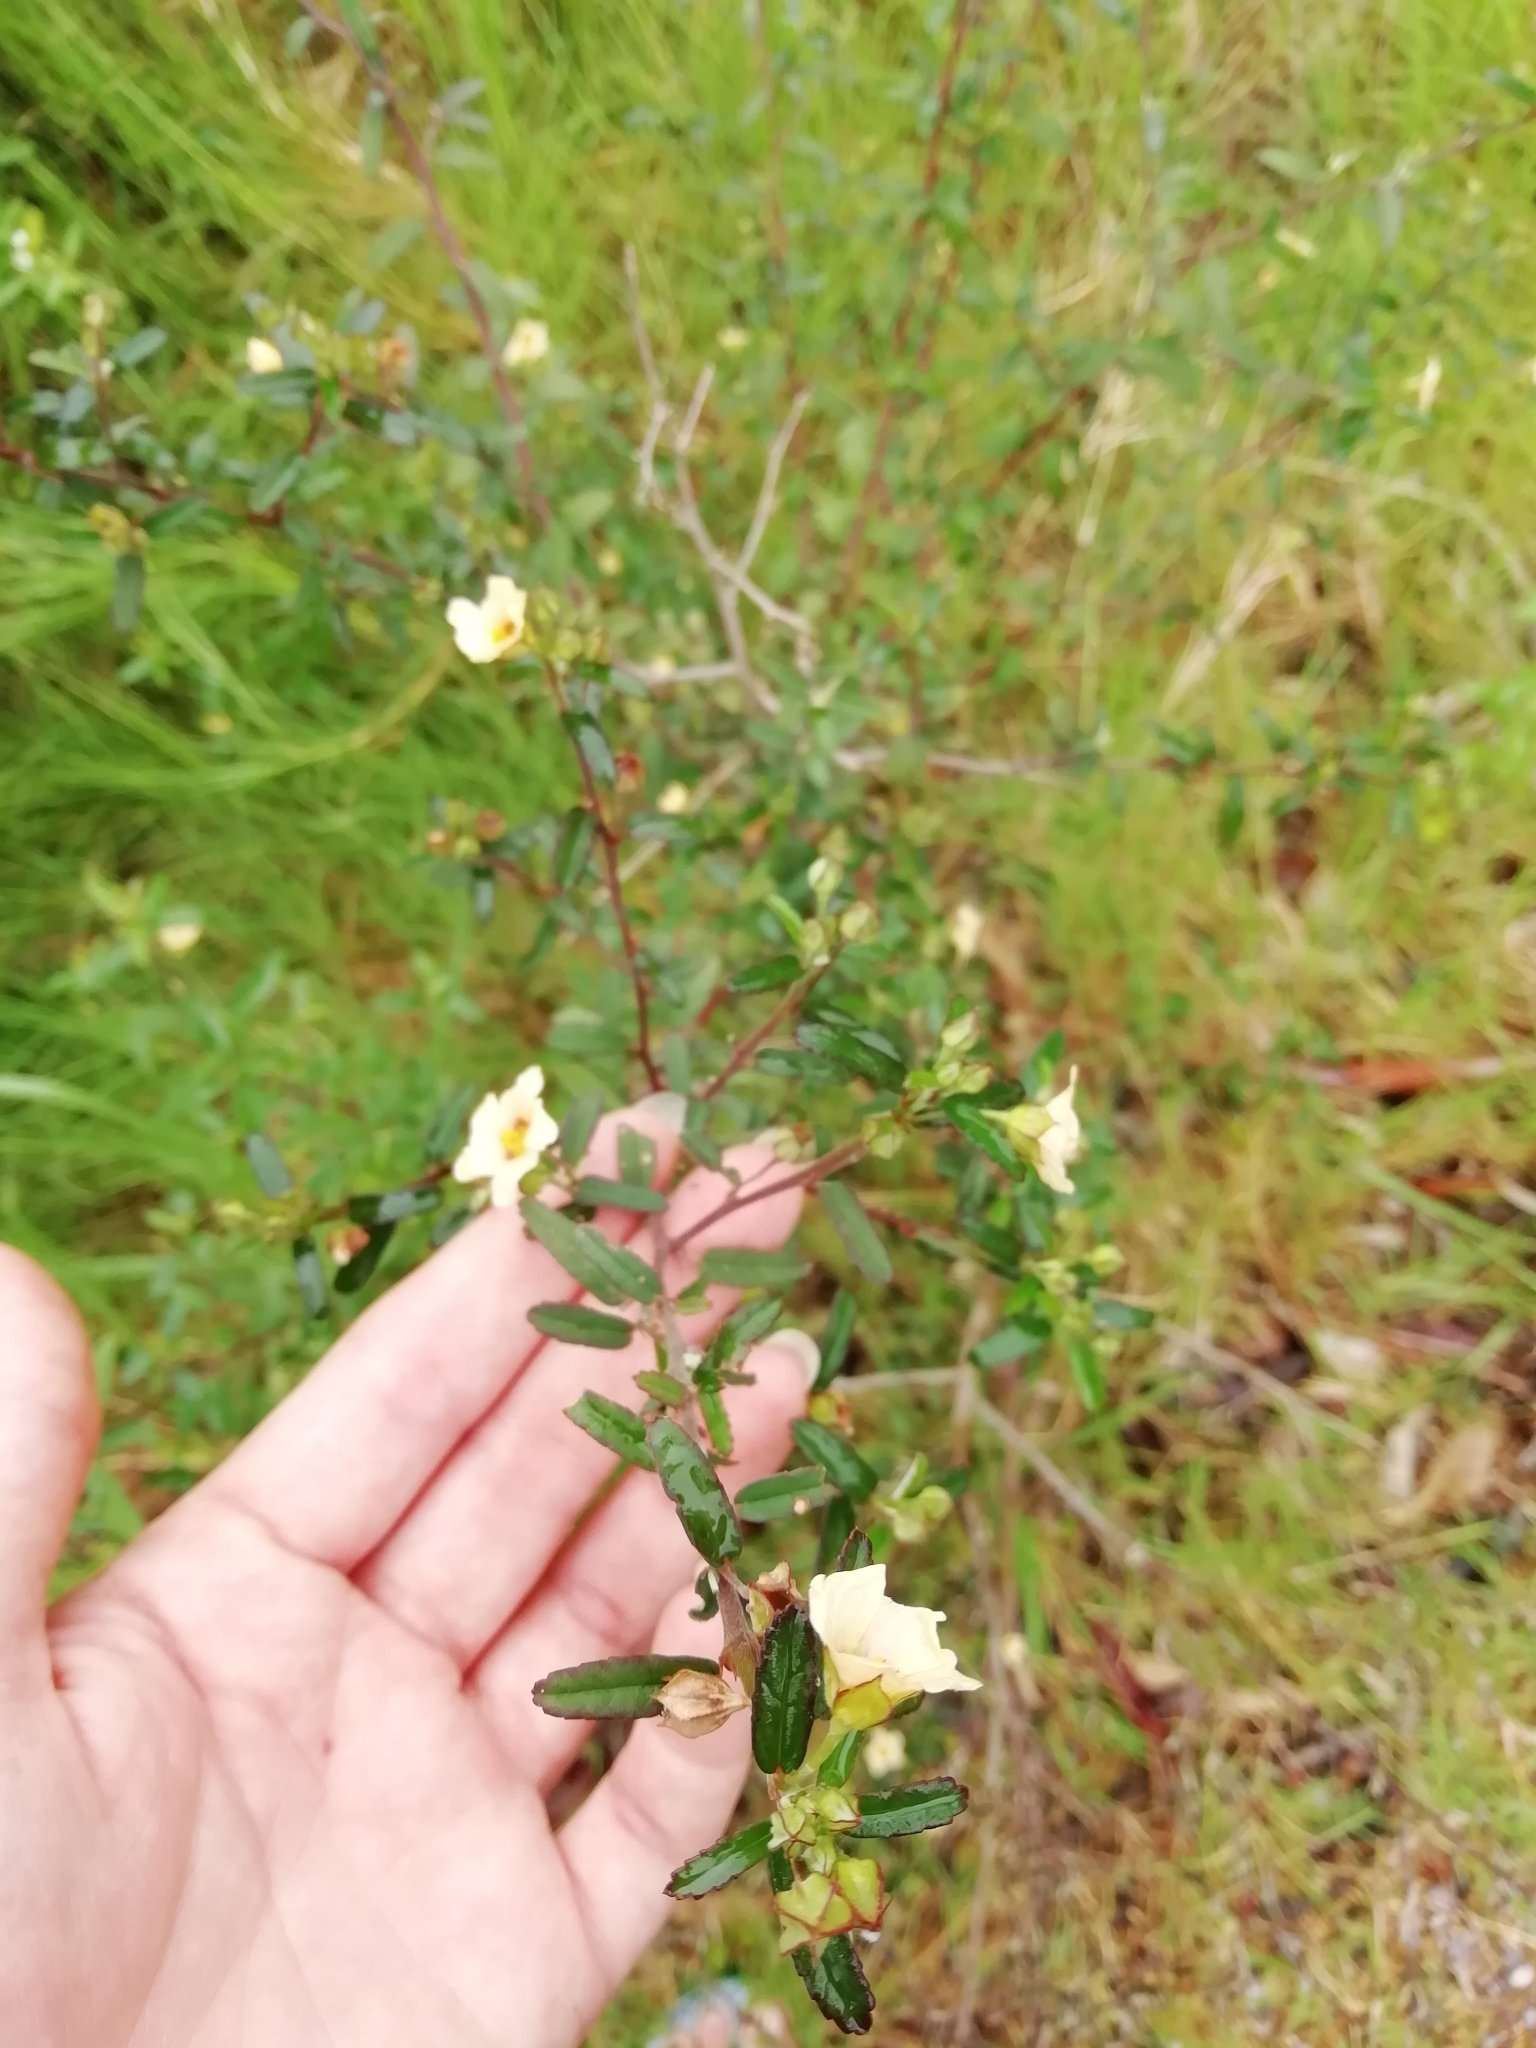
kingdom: Plantae
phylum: Tracheophyta
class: Magnoliopsida
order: Malvales
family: Malvaceae
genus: Sida
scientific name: Sida spinosa
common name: Prickly fanpetals
